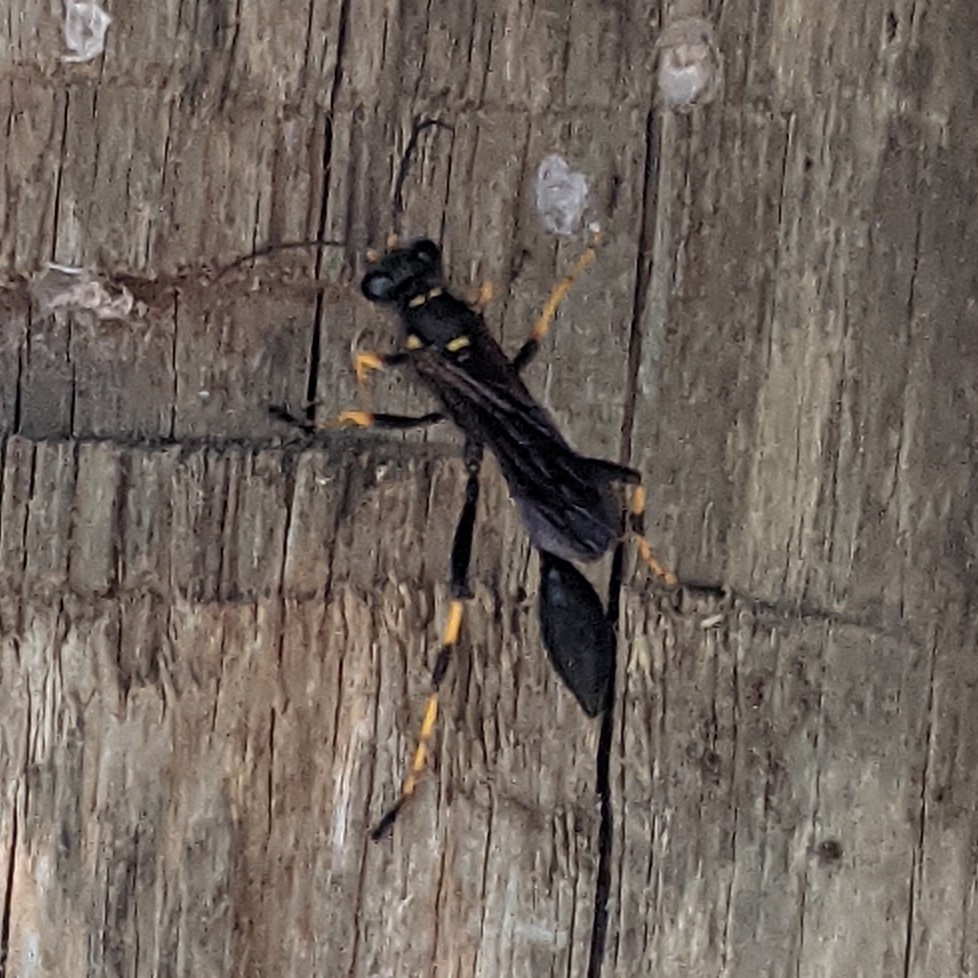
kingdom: Animalia
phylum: Arthropoda
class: Insecta
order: Hymenoptera
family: Sphecidae
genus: Sceliphron
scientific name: Sceliphron caementarium
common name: Mud dauber
